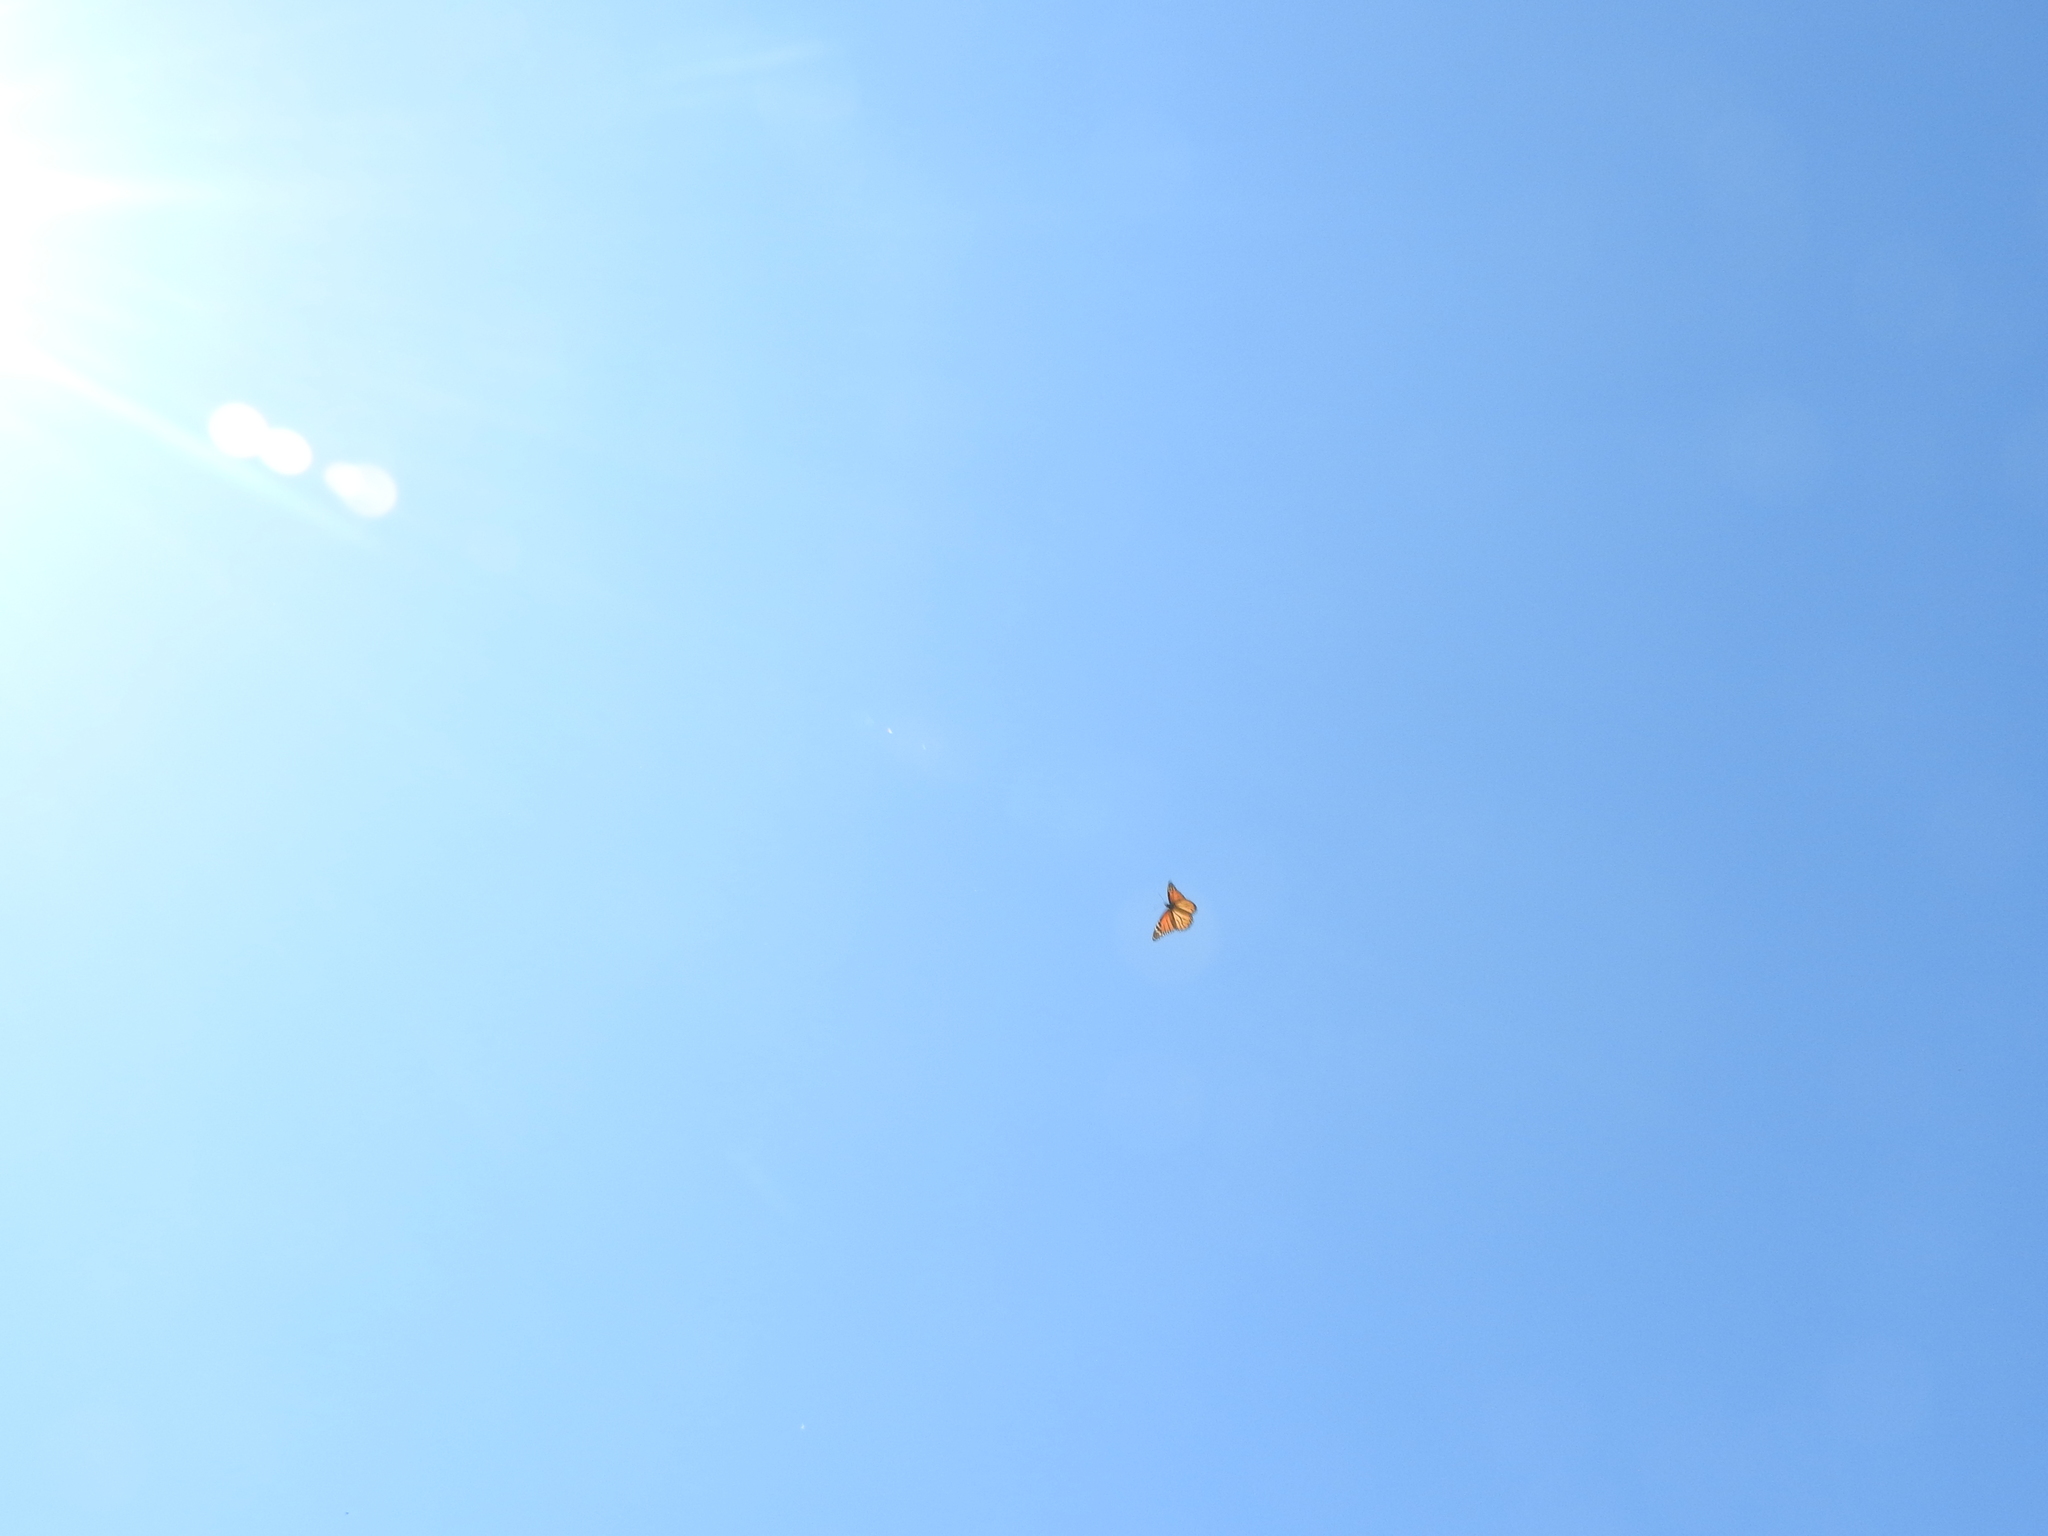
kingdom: Animalia
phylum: Arthropoda
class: Insecta
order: Lepidoptera
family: Nymphalidae
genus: Danaus
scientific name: Danaus plexippus
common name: Monarch
